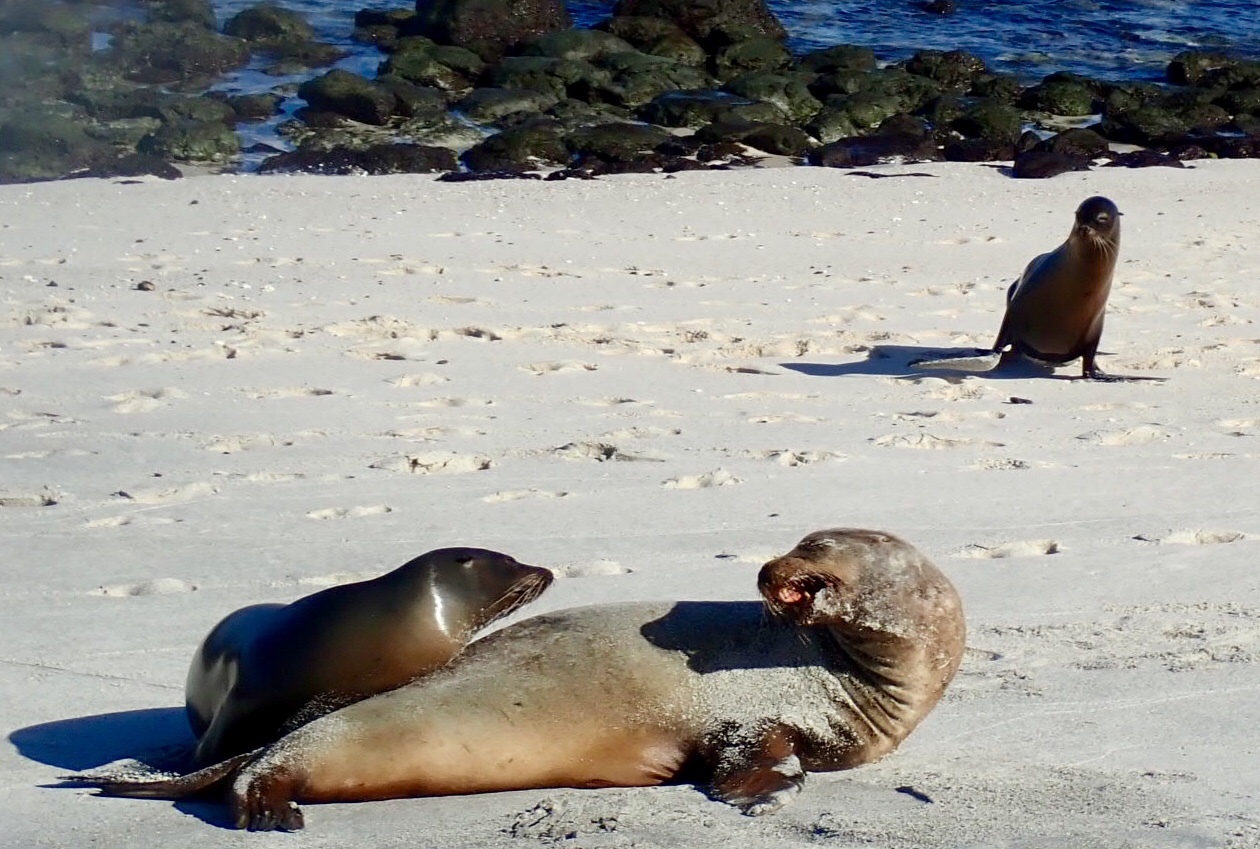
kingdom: Animalia
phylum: Chordata
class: Mammalia
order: Carnivora
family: Otariidae
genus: Zalophus
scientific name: Zalophus wollebaeki
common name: Galapagos sea lion
